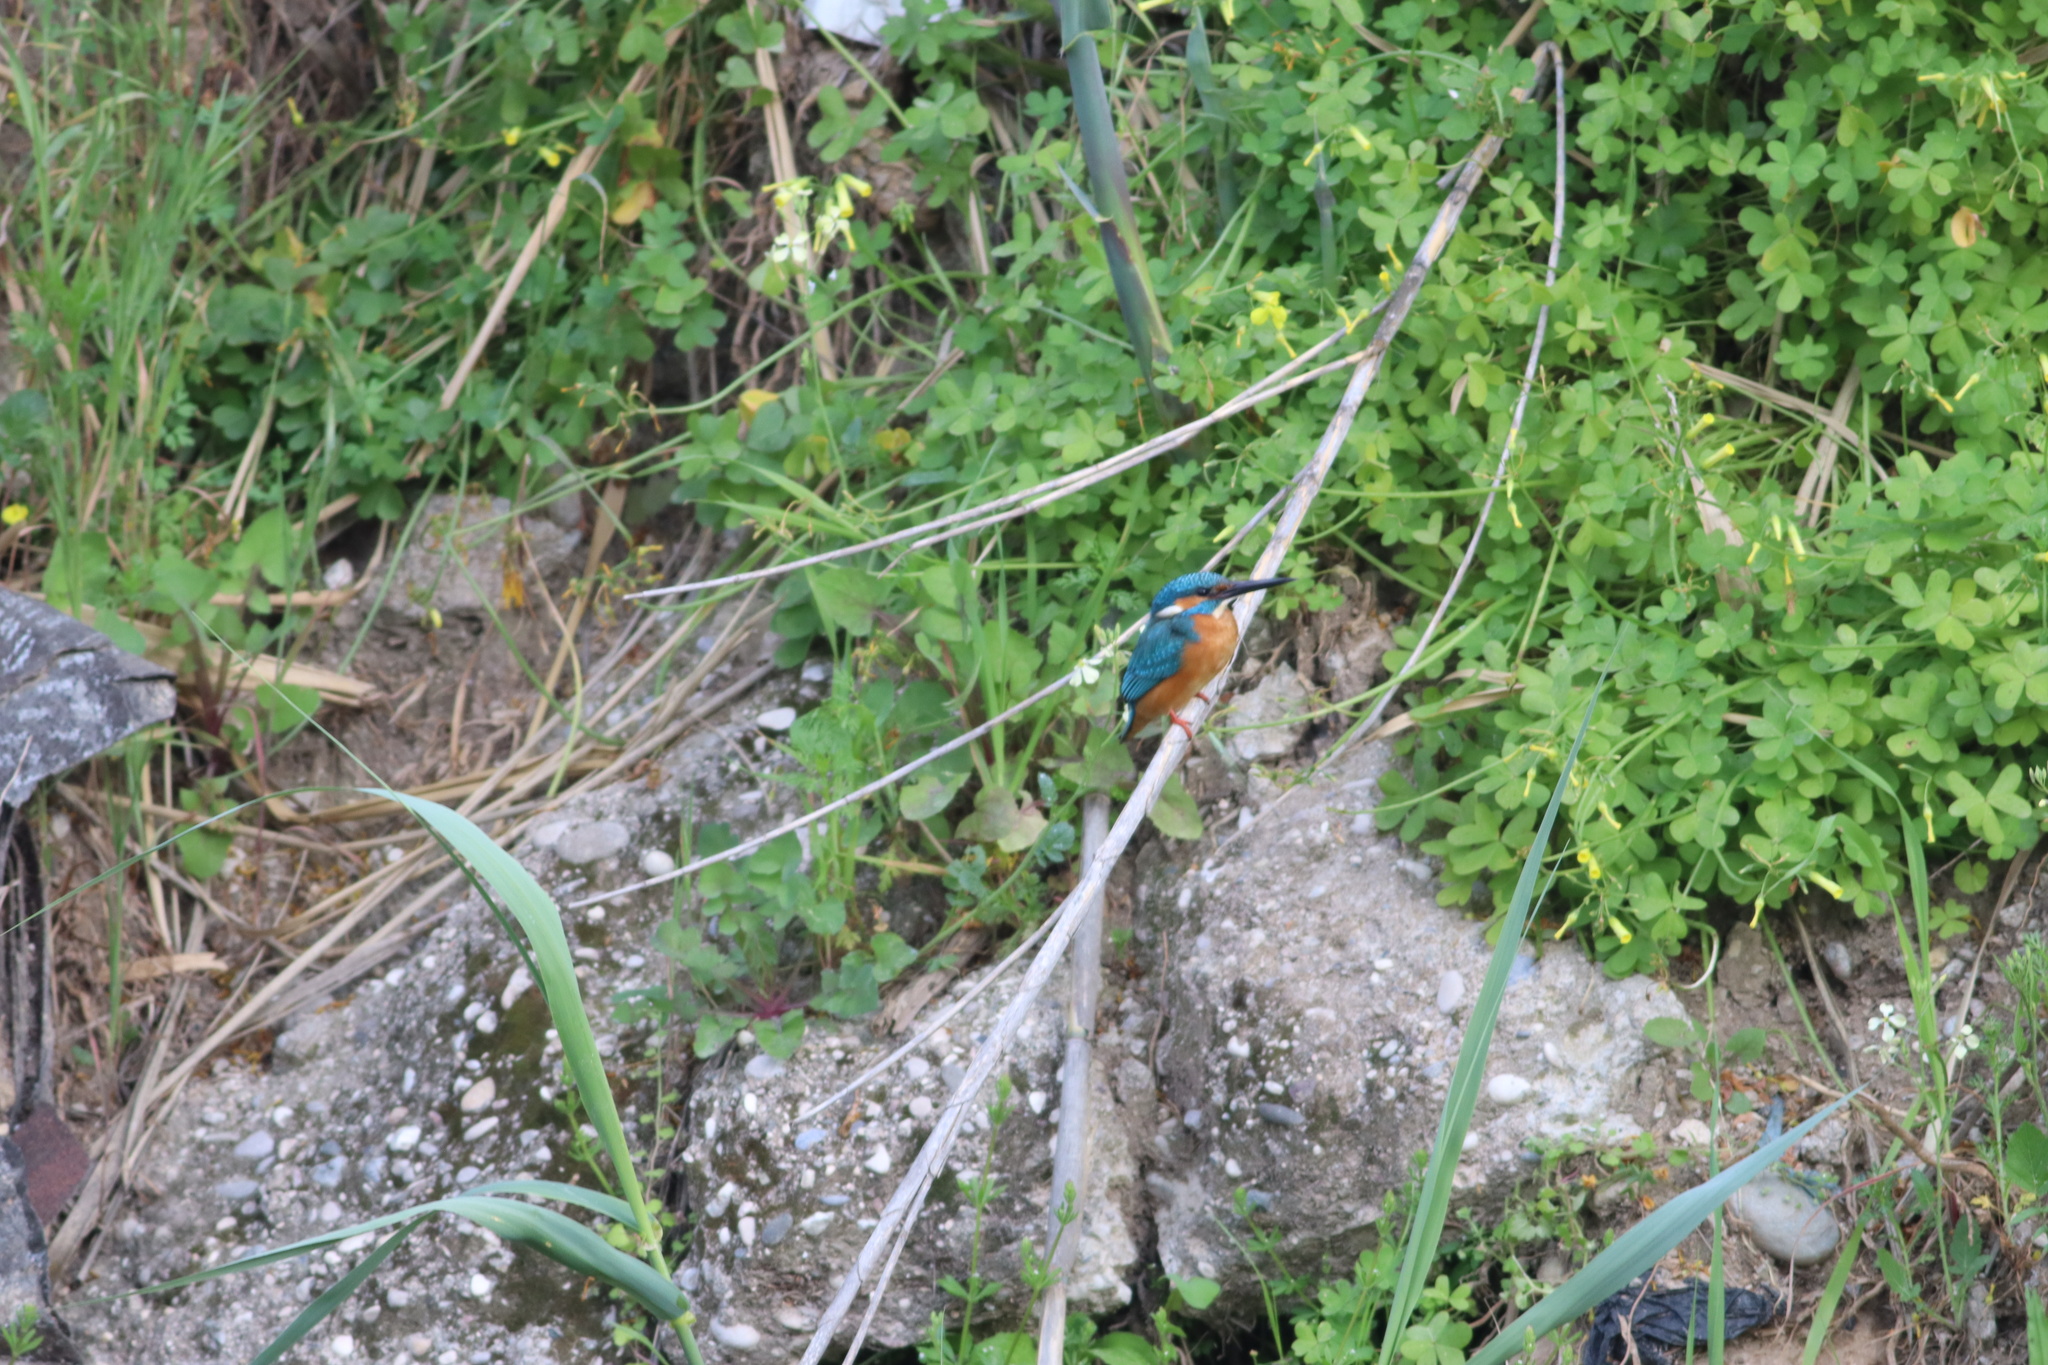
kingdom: Animalia
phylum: Chordata
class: Aves
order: Coraciiformes
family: Alcedinidae
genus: Alcedo
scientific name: Alcedo atthis
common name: Common kingfisher
